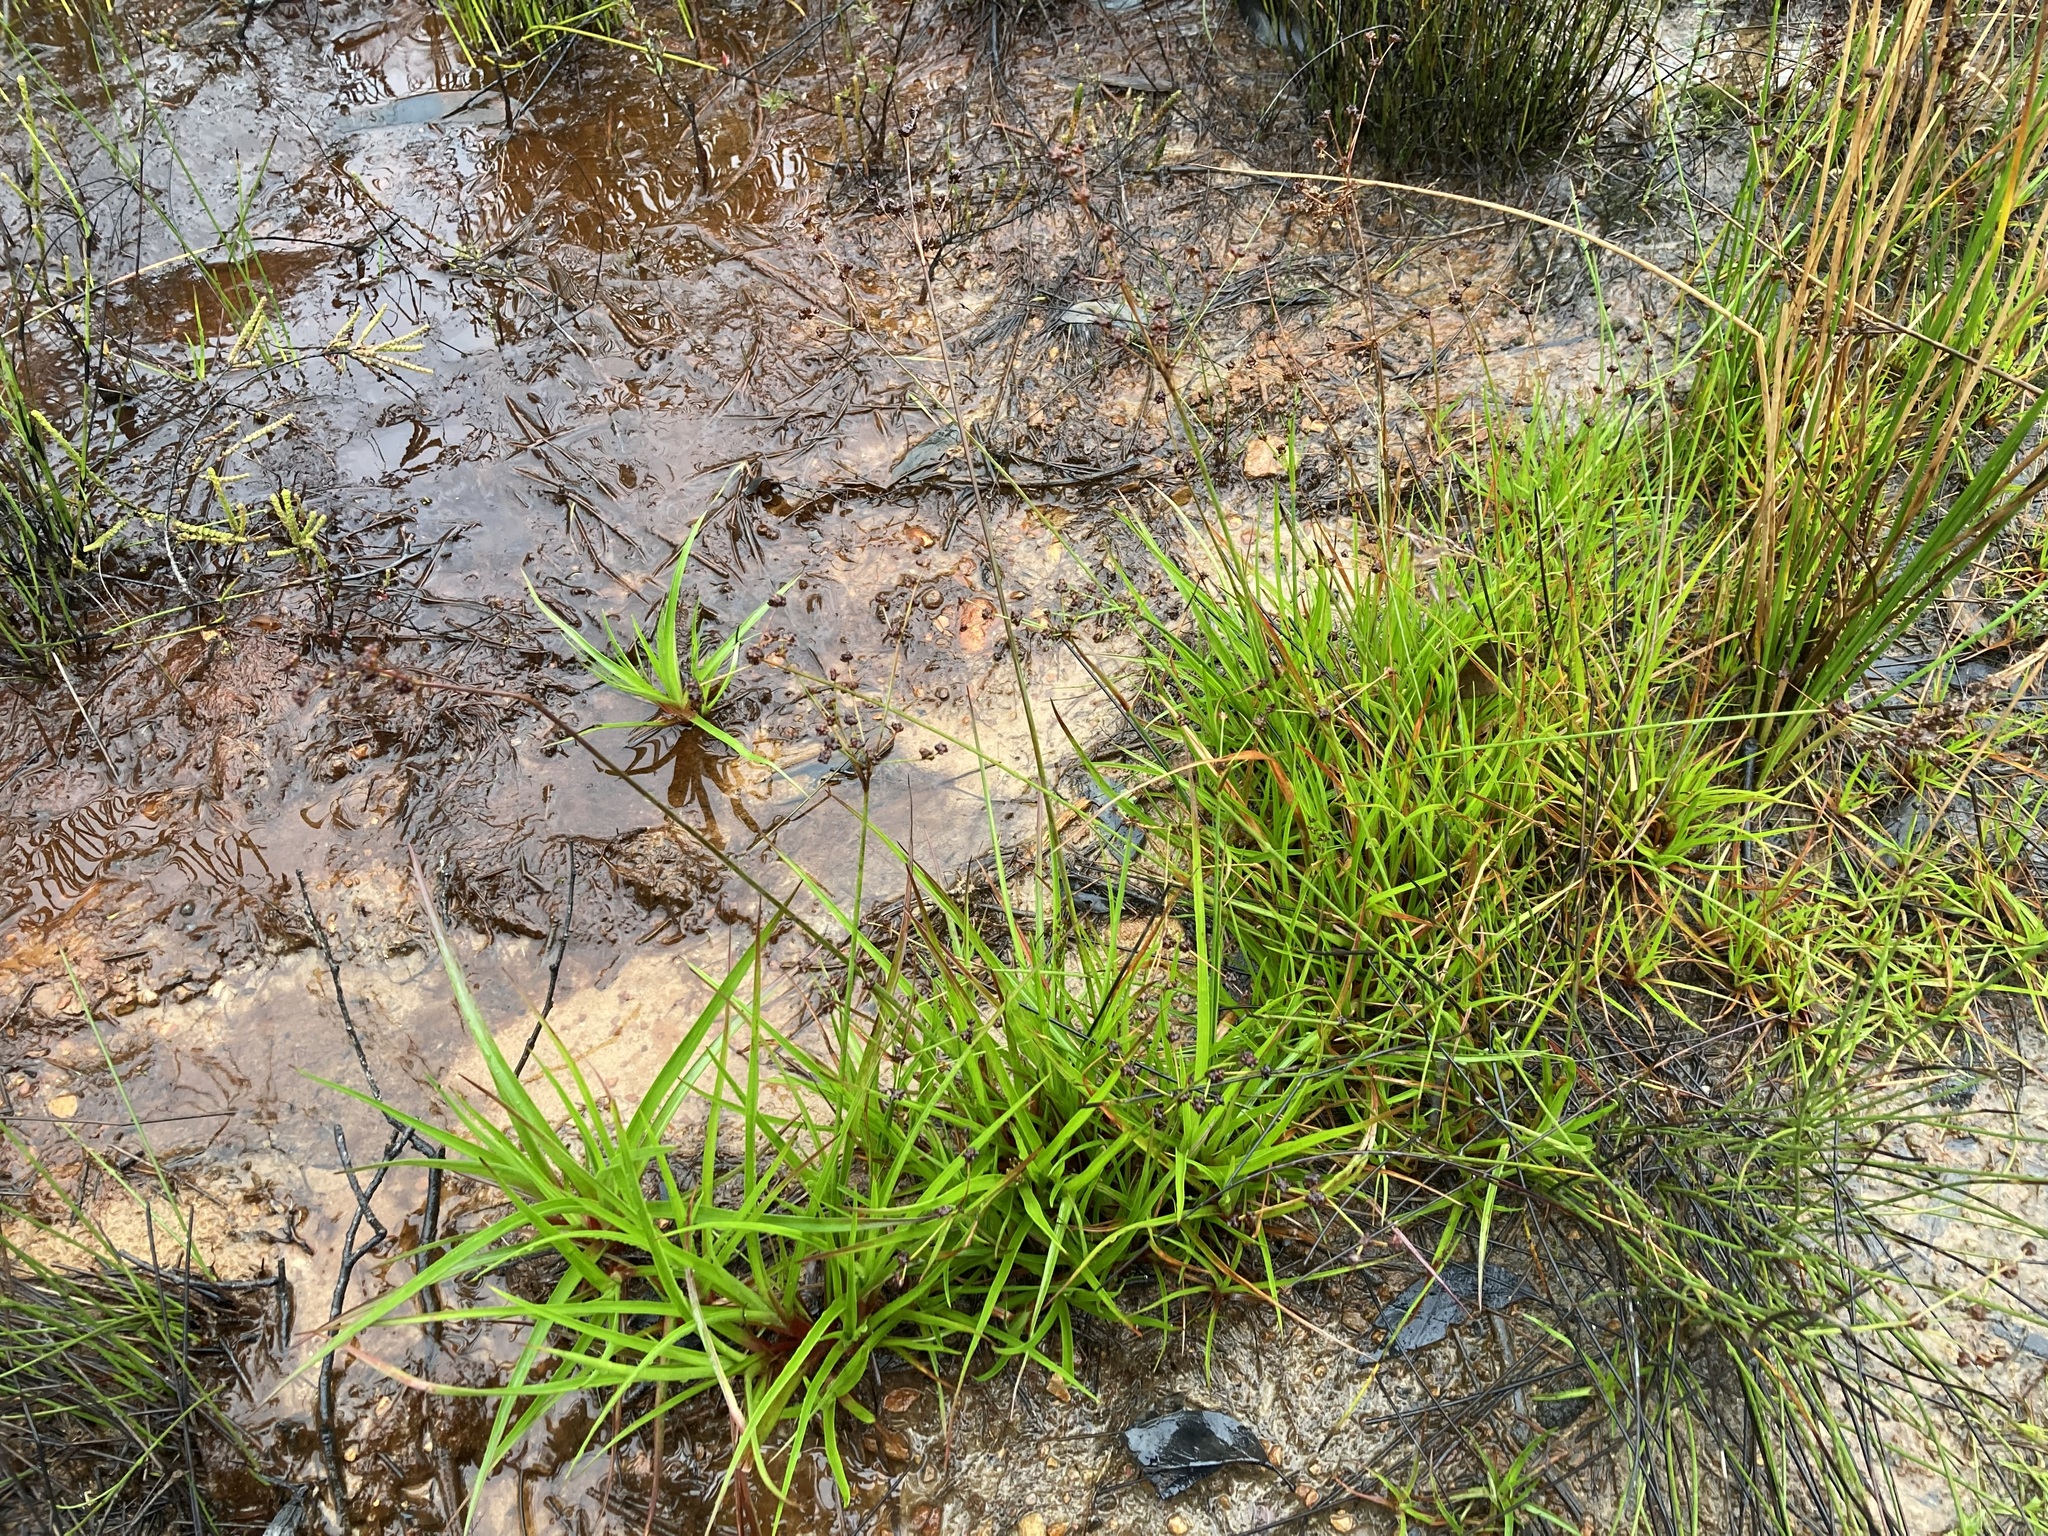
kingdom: Plantae
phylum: Tracheophyta
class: Liliopsida
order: Poales
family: Juncaceae
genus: Juncus
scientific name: Juncus planifolius
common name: Broadleaf rush
